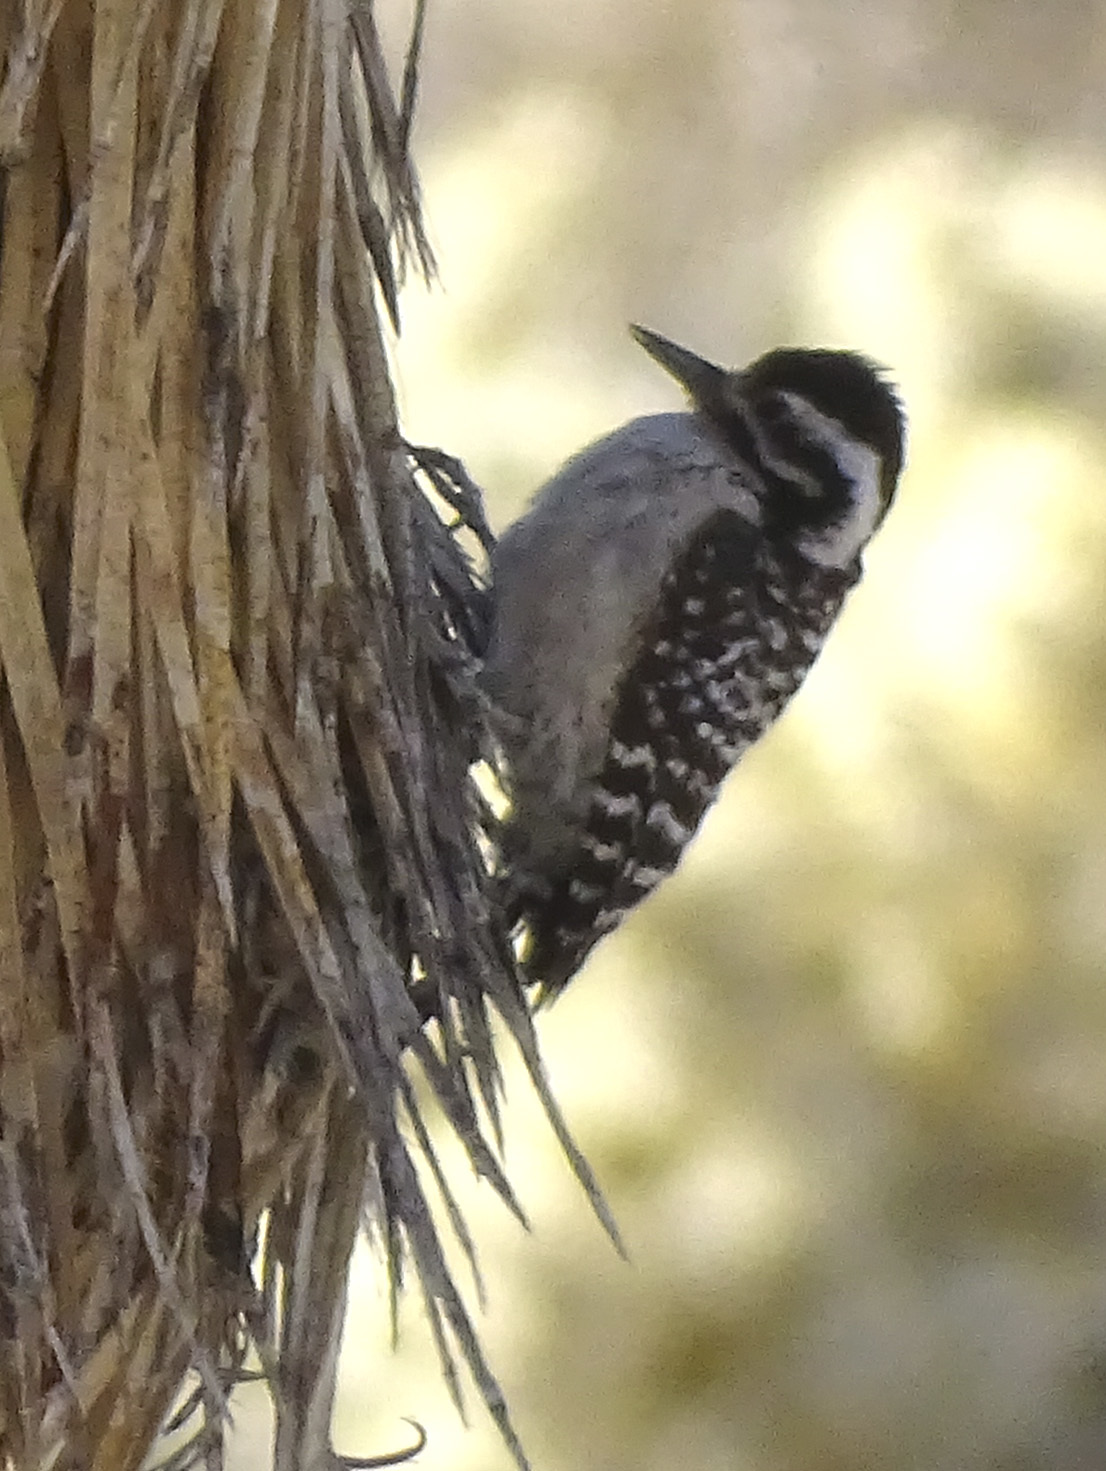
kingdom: Animalia
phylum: Chordata
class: Aves
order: Piciformes
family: Picidae
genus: Dryobates
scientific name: Dryobates scalaris
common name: Ladder-backed woodpecker
